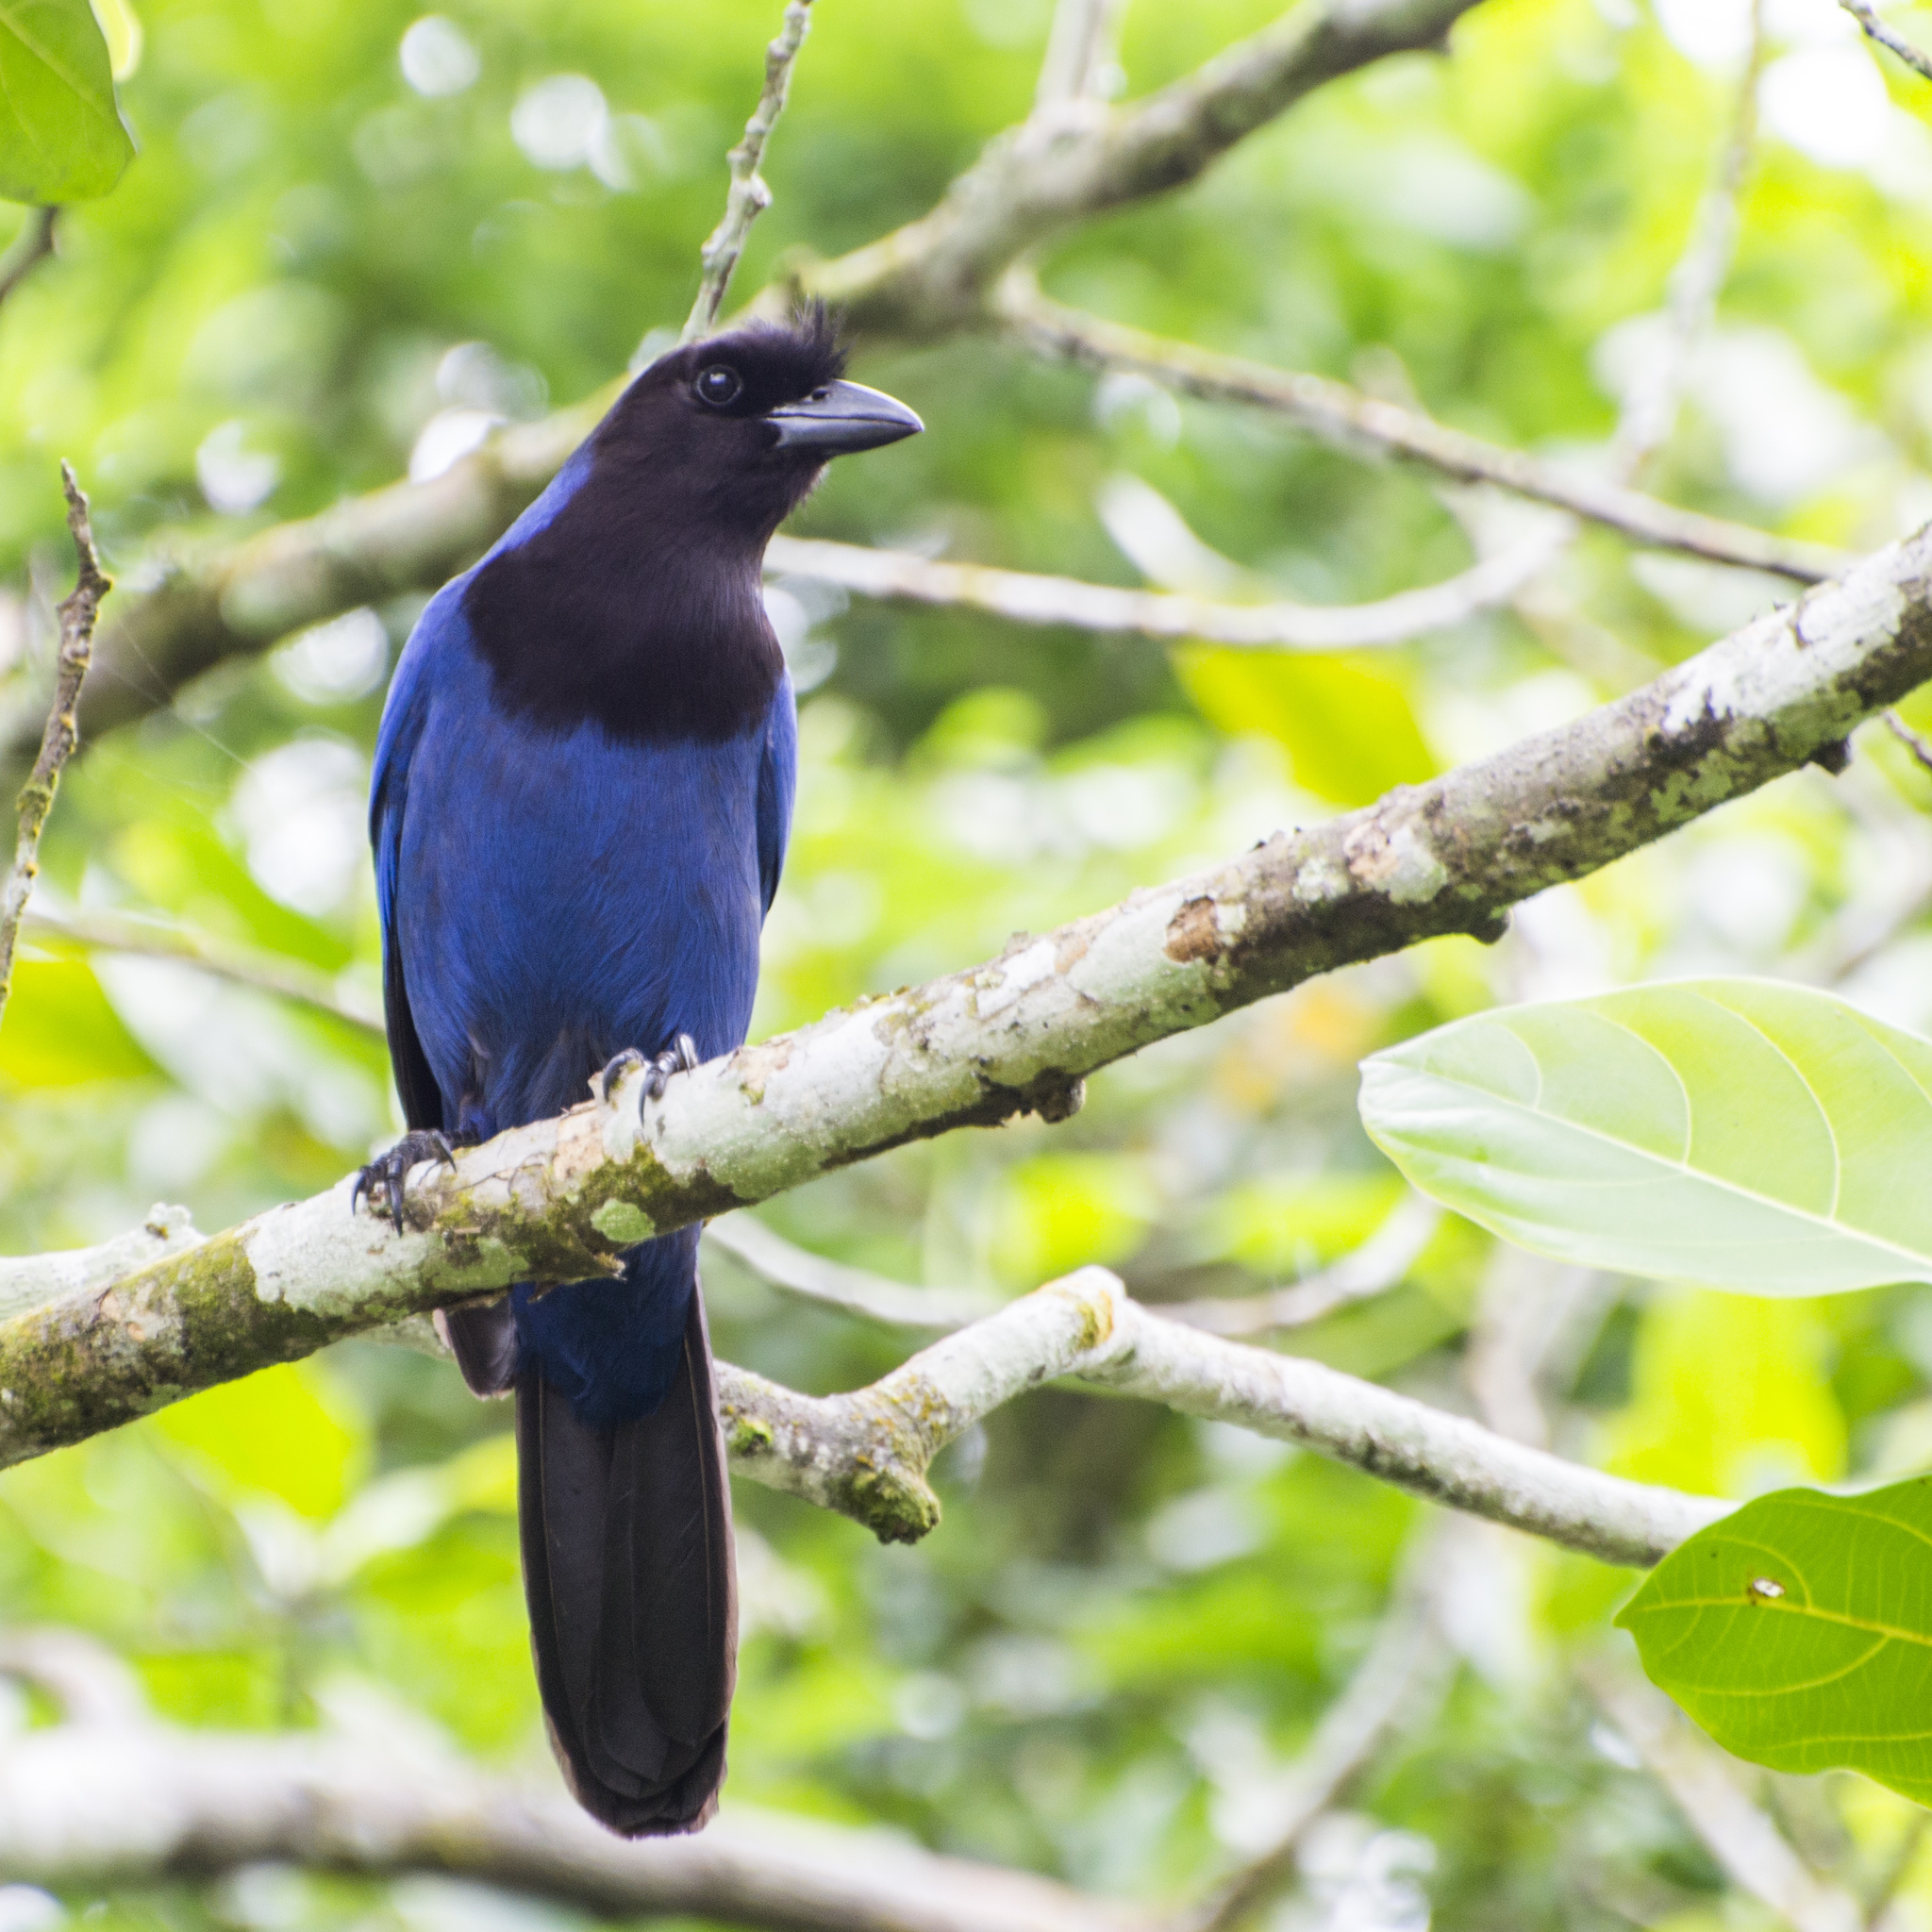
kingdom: Animalia
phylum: Chordata
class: Aves
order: Passeriformes
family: Corvidae
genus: Cyanocorax
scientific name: Cyanocorax caeruleus
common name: Azure jay
